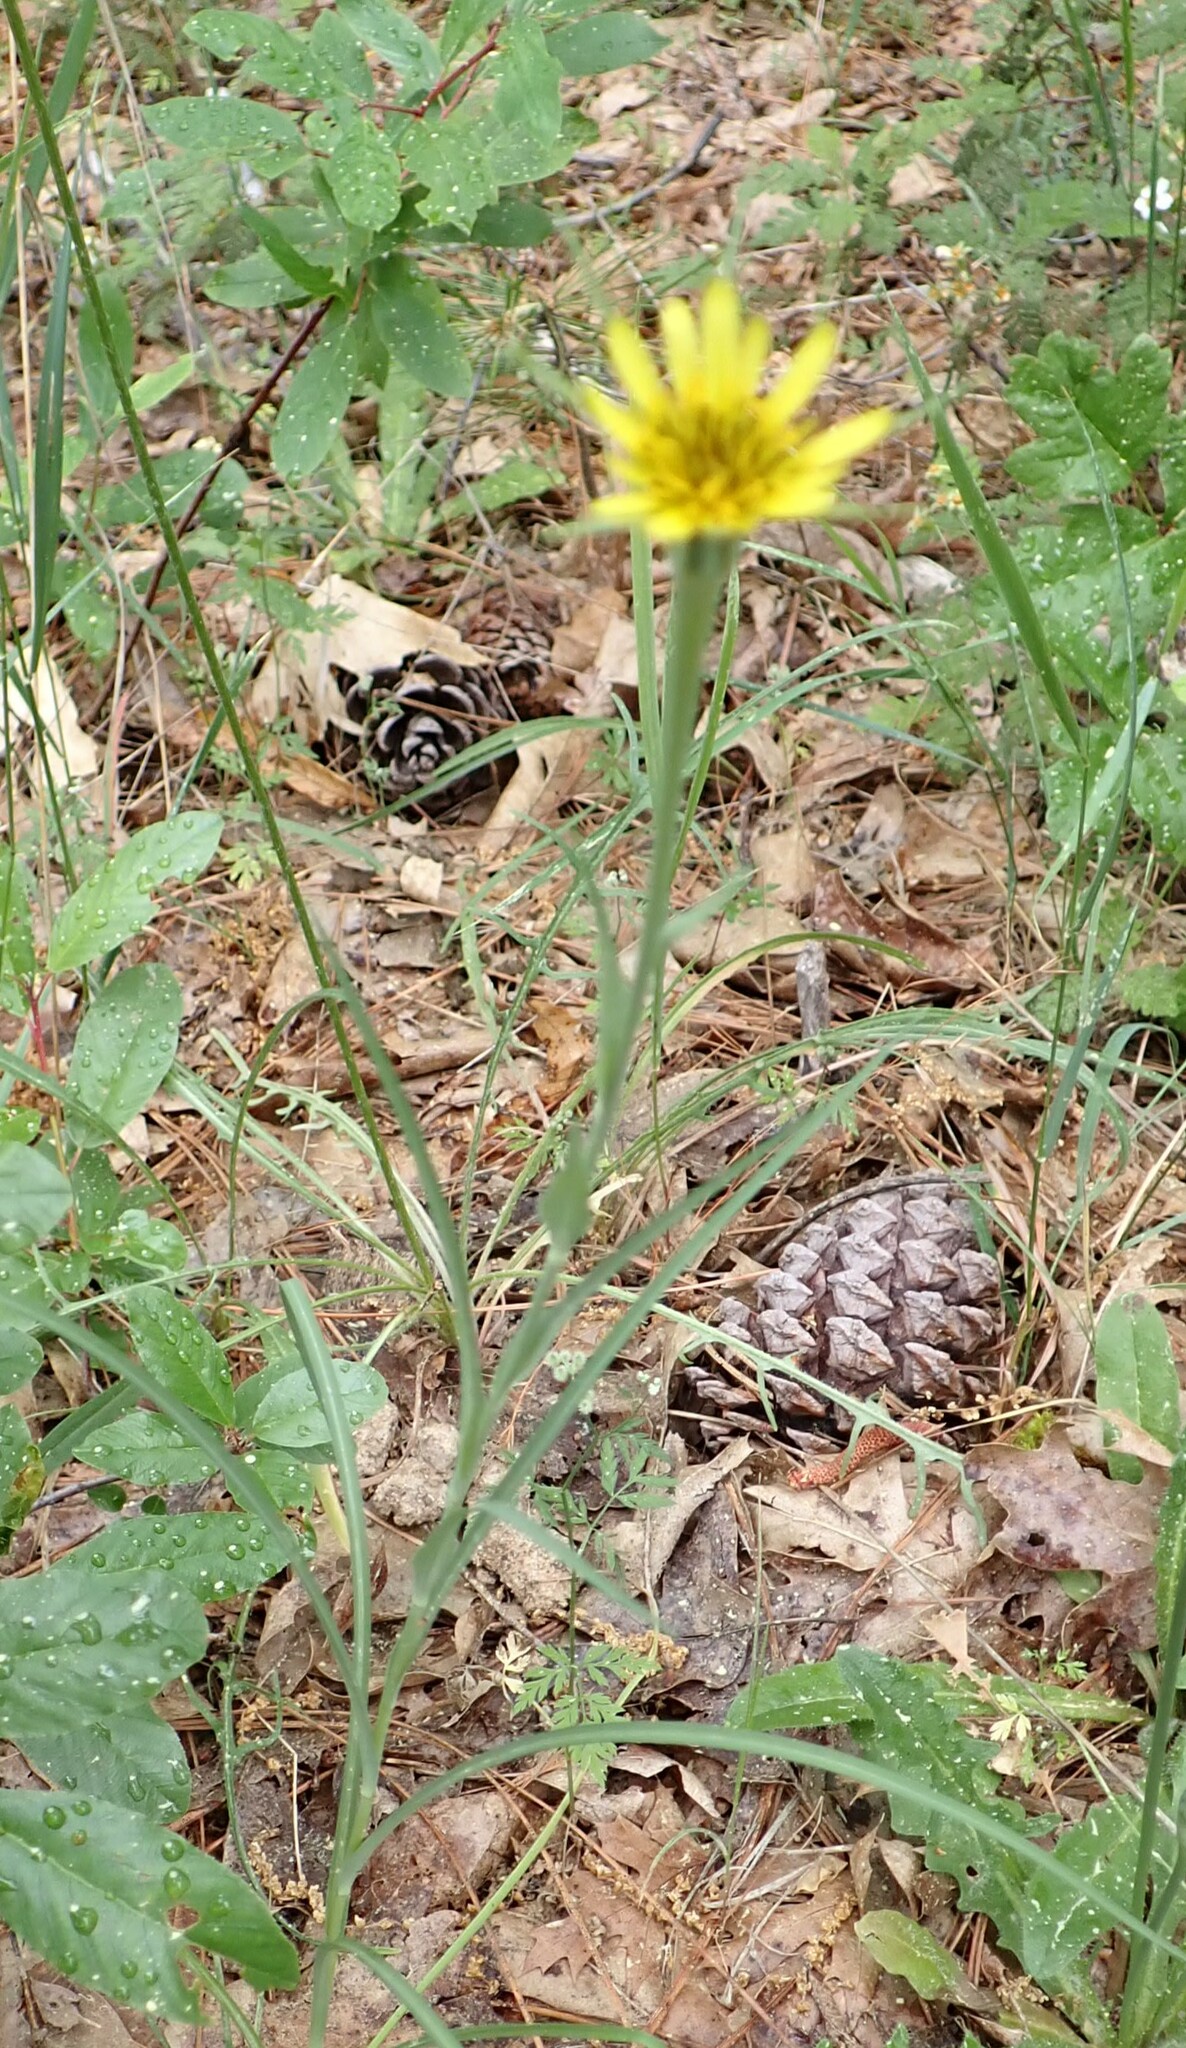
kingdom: Plantae
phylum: Tracheophyta
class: Magnoliopsida
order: Asterales
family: Asteraceae
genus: Tragopogon
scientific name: Tragopogon dubius
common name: Yellow salsify
